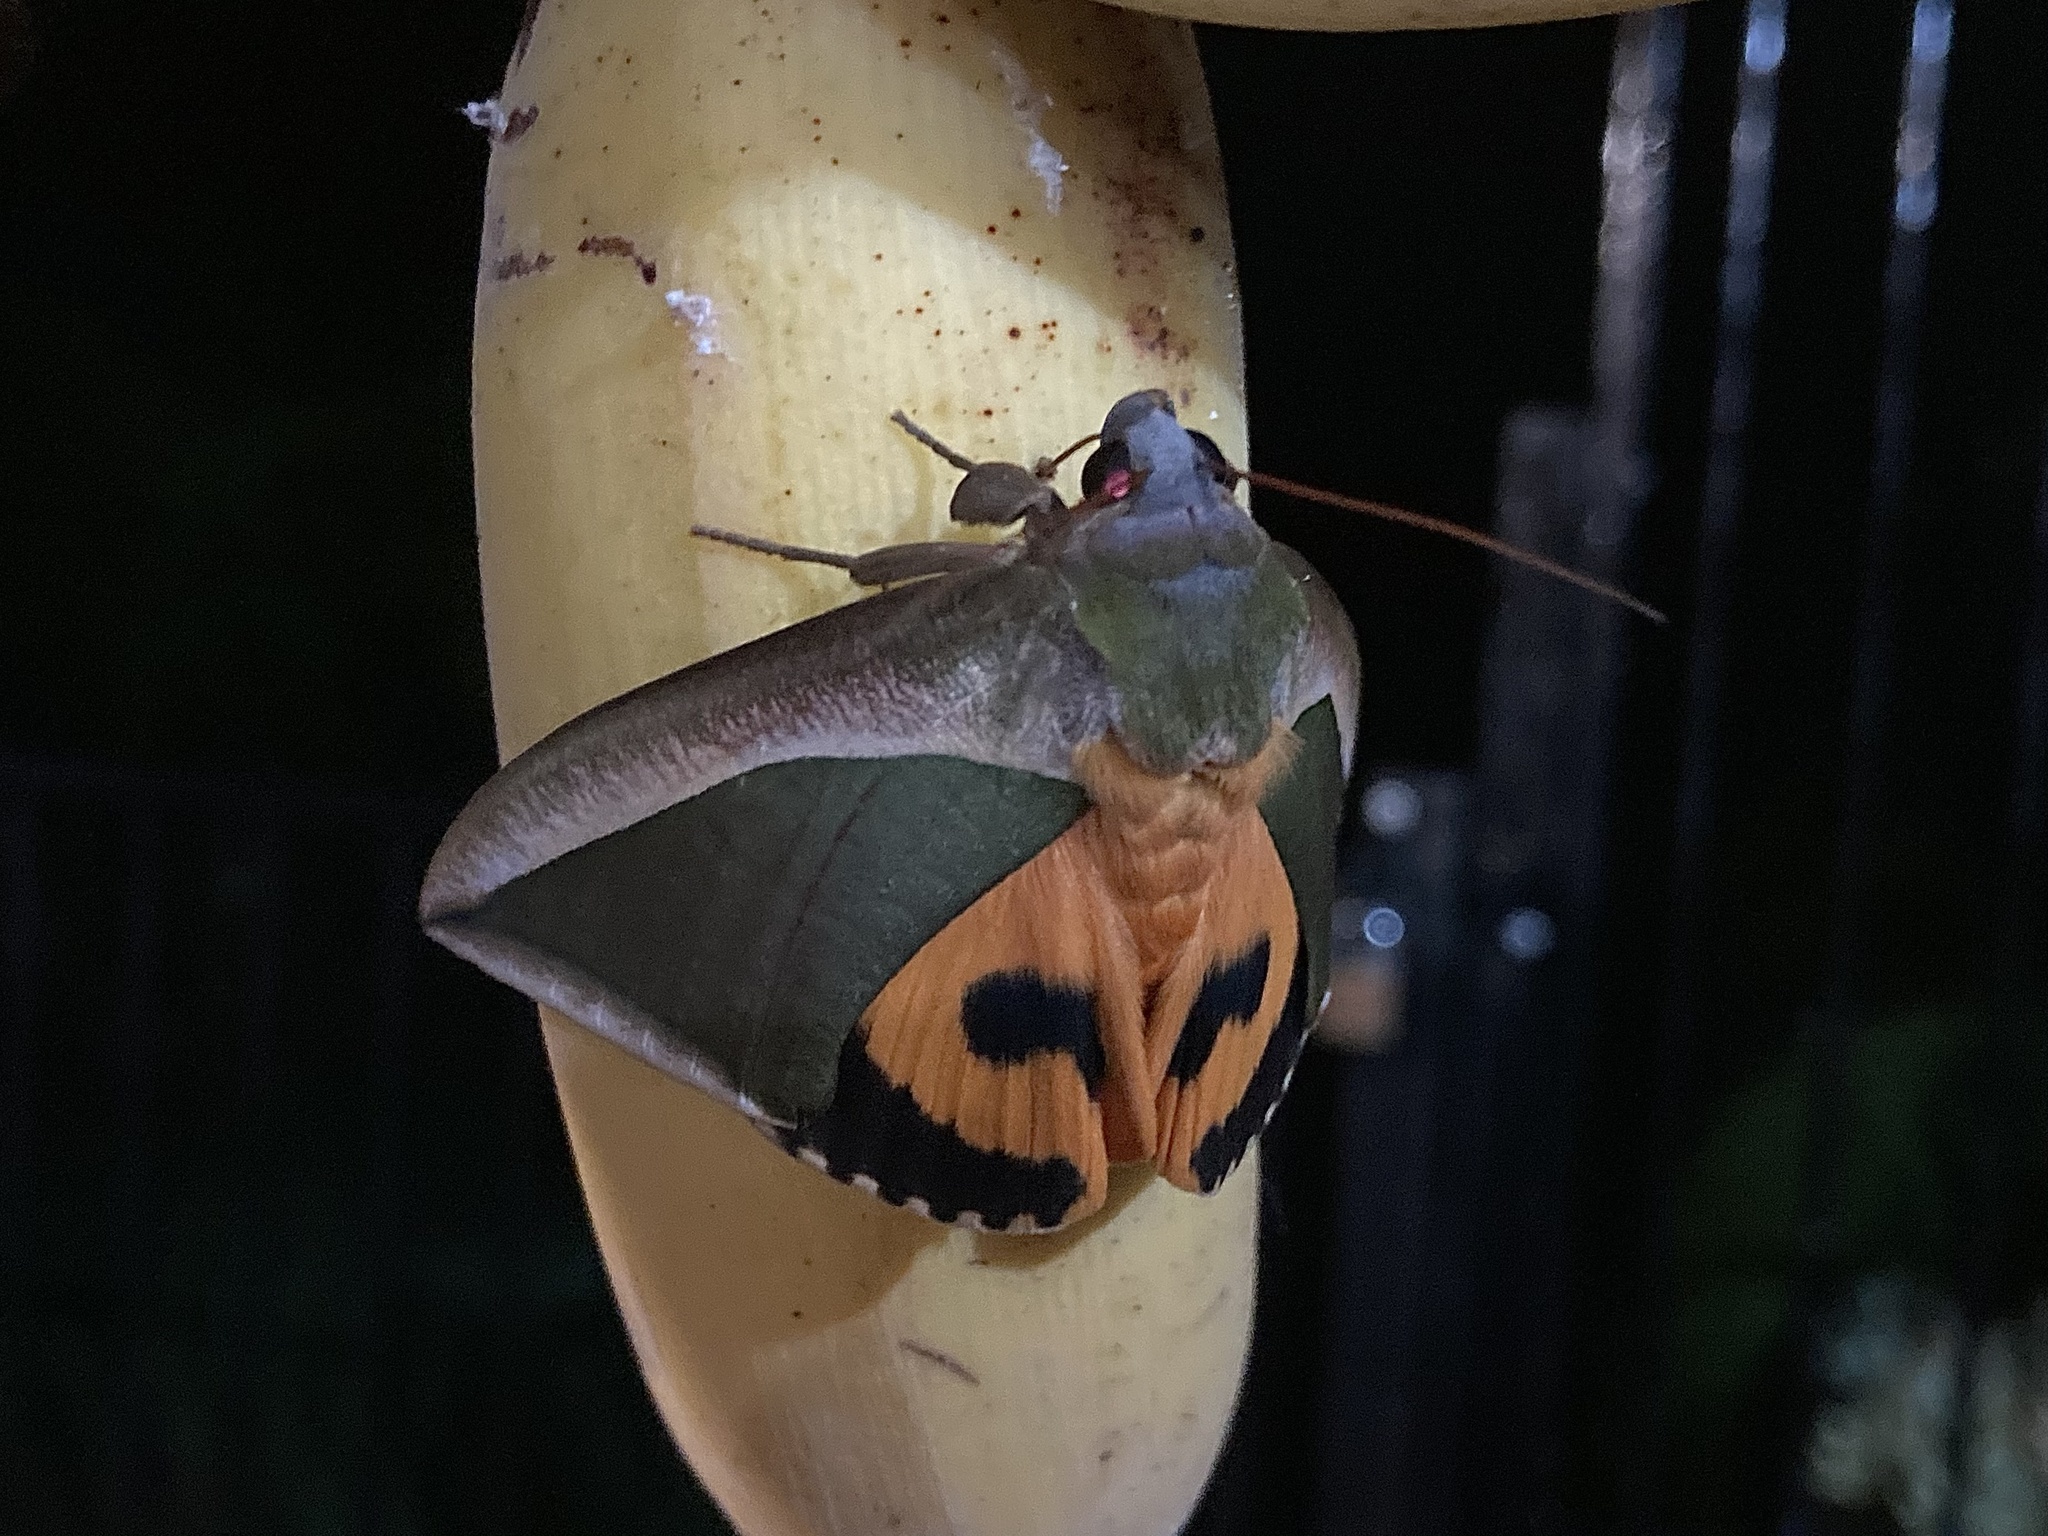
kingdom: Animalia
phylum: Arthropoda
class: Insecta
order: Lepidoptera
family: Erebidae
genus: Eudocima
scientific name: Eudocima salaminia
